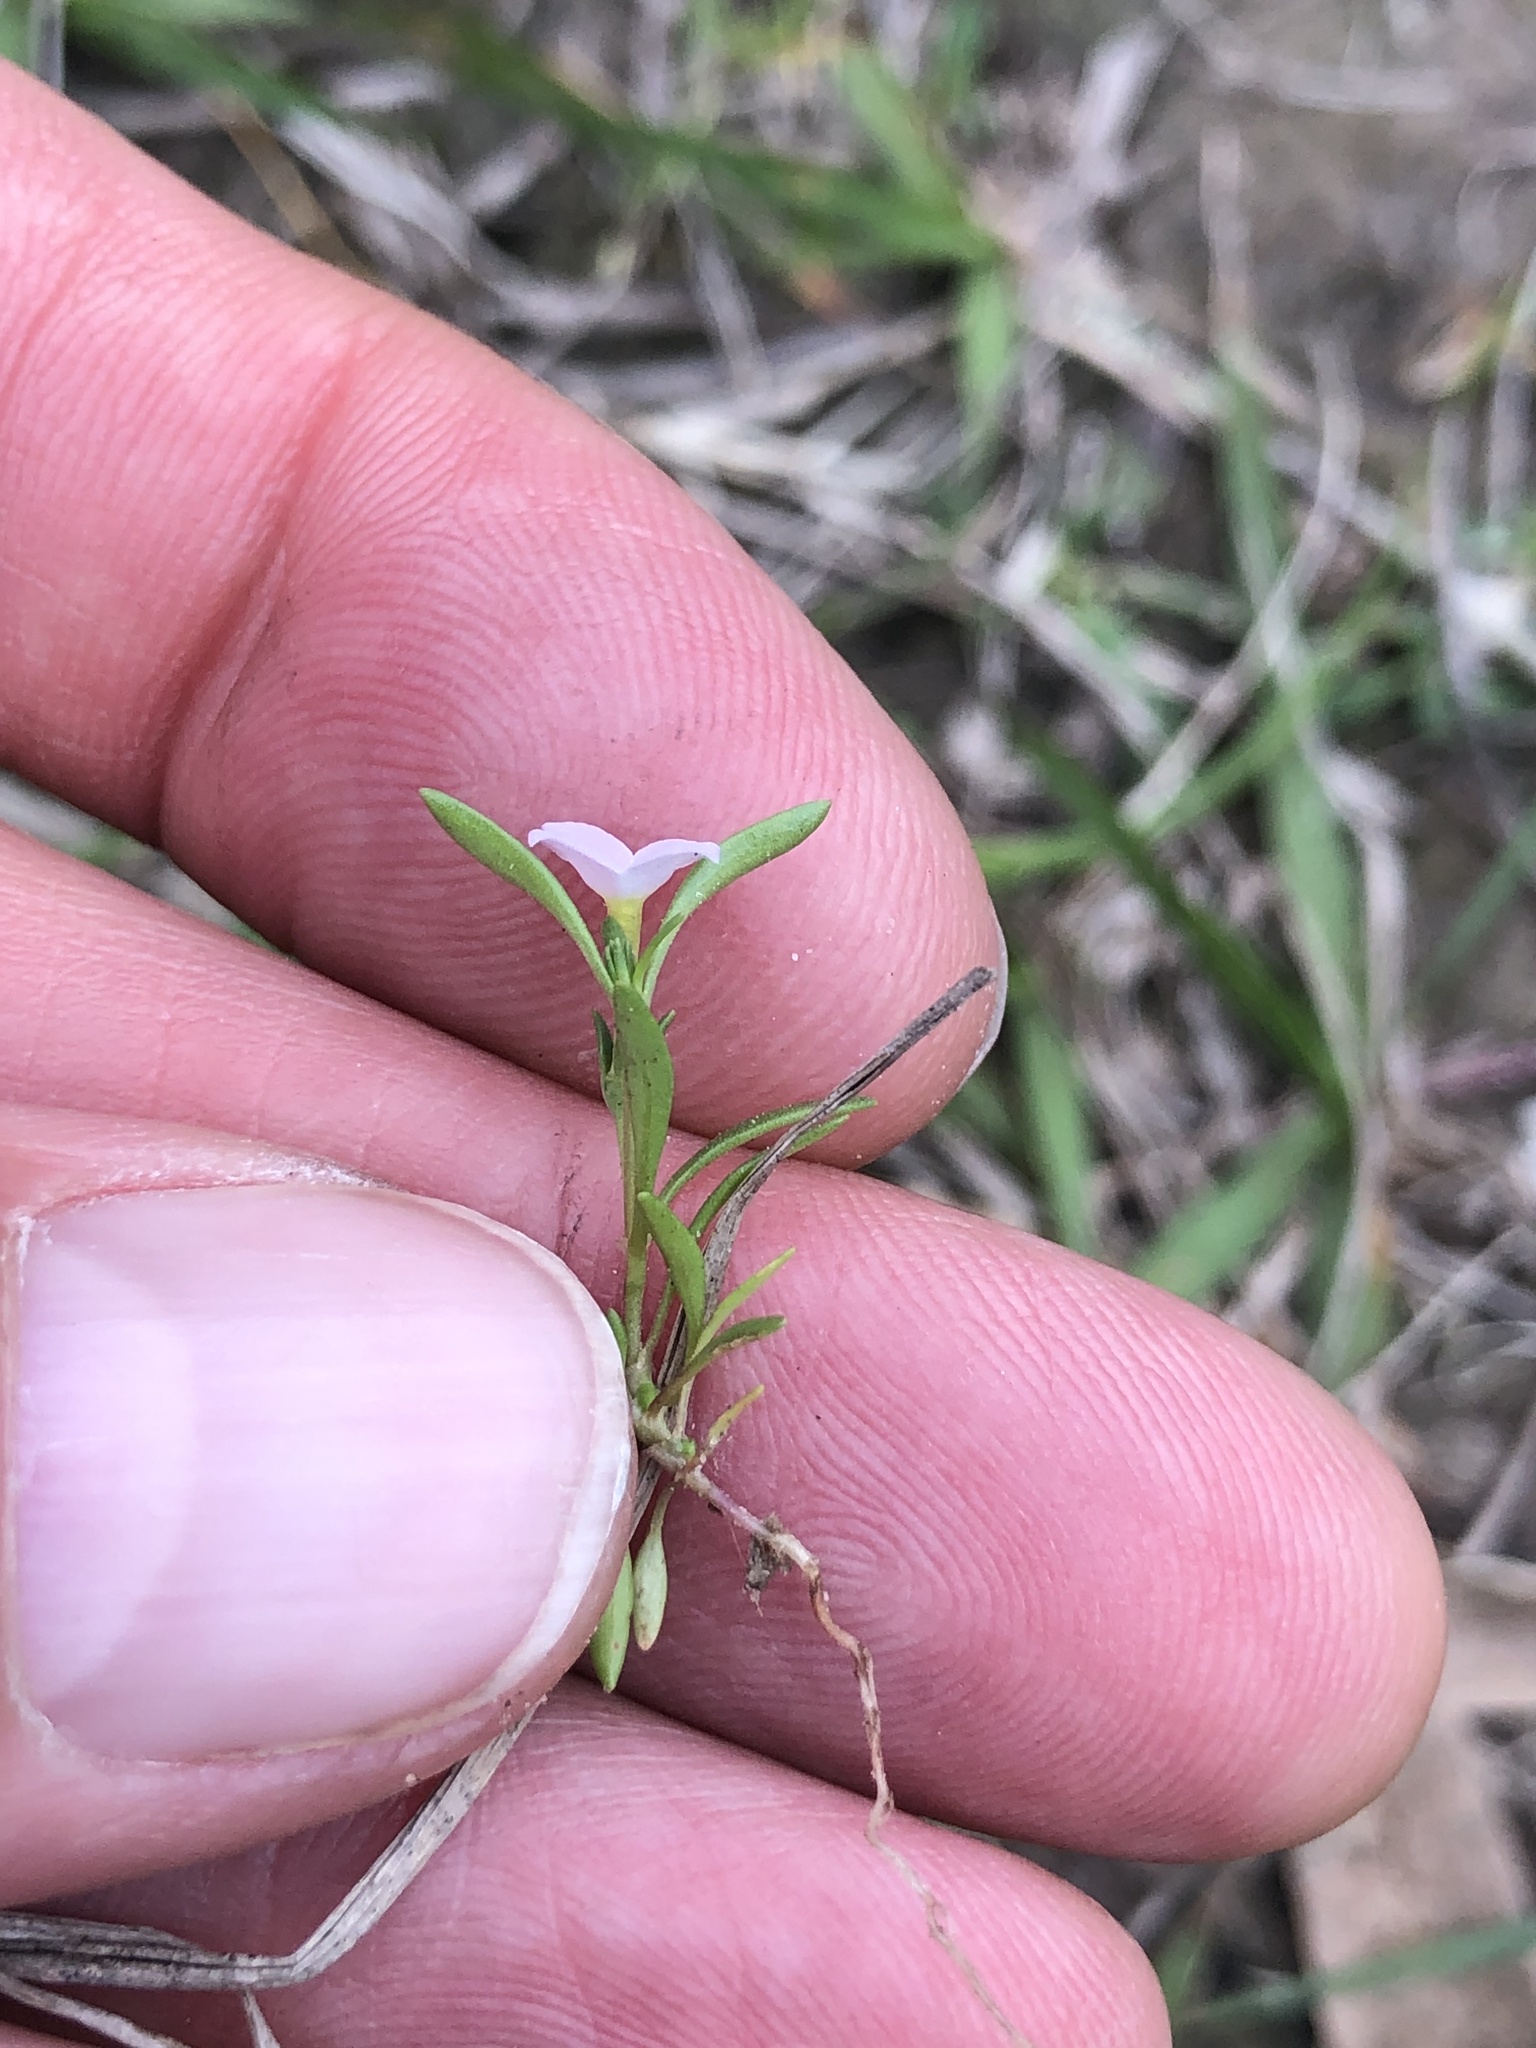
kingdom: Plantae
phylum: Tracheophyta
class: Magnoliopsida
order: Gentianales
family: Rubiaceae
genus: Houstonia
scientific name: Houstonia rosea
